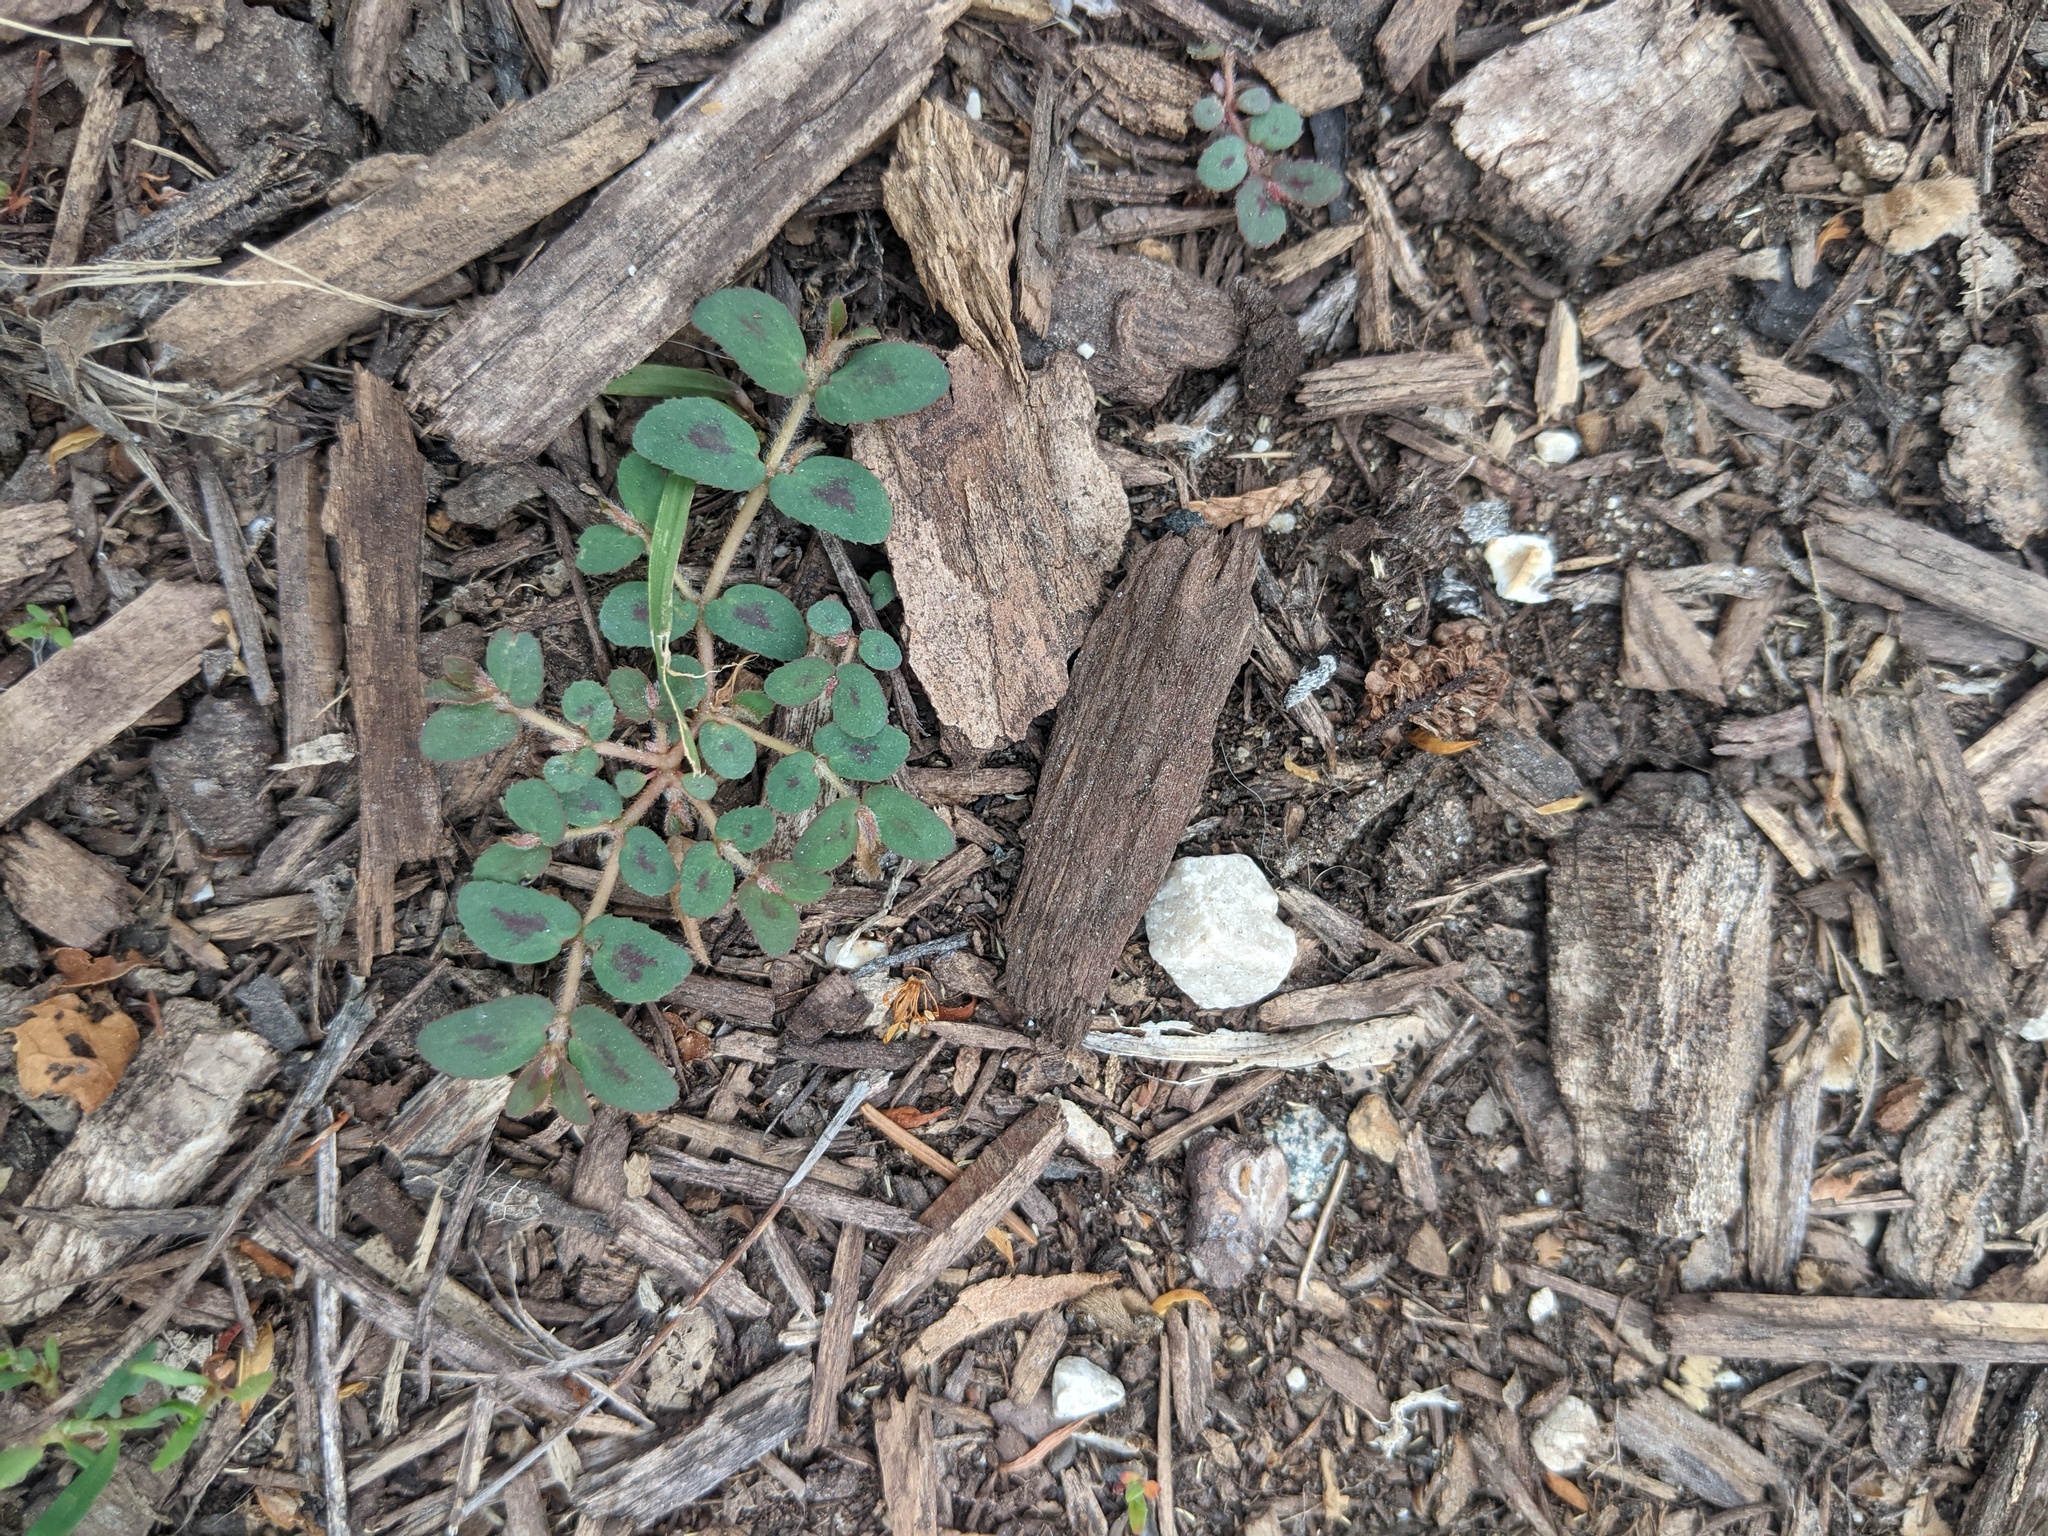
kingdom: Plantae
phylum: Tracheophyta
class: Magnoliopsida
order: Malpighiales
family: Euphorbiaceae
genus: Euphorbia
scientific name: Euphorbia maculata
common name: Spotted spurge
